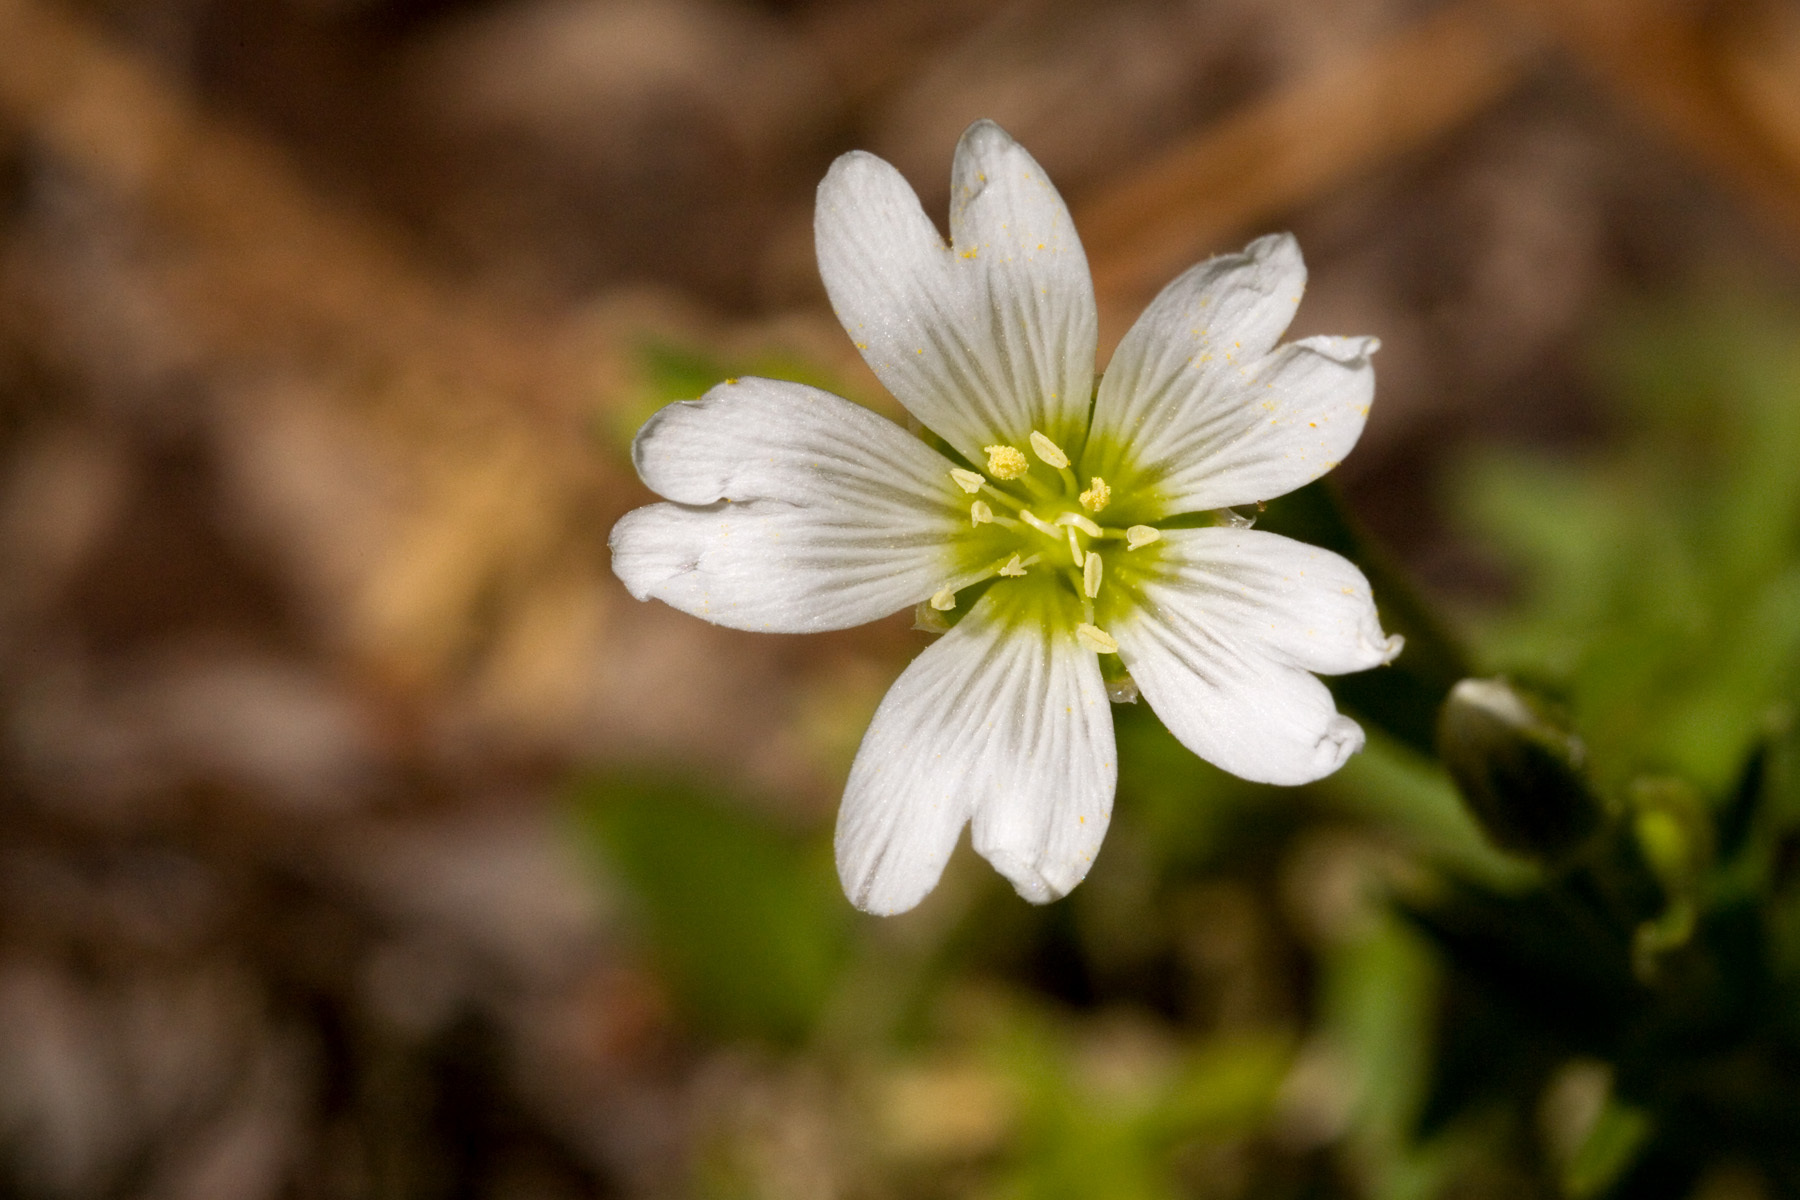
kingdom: Plantae
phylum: Tracheophyta
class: Magnoliopsida
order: Caryophyllales
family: Caryophyllaceae
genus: Cerastium
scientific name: Cerastium arvense
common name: Field mouse-ear
